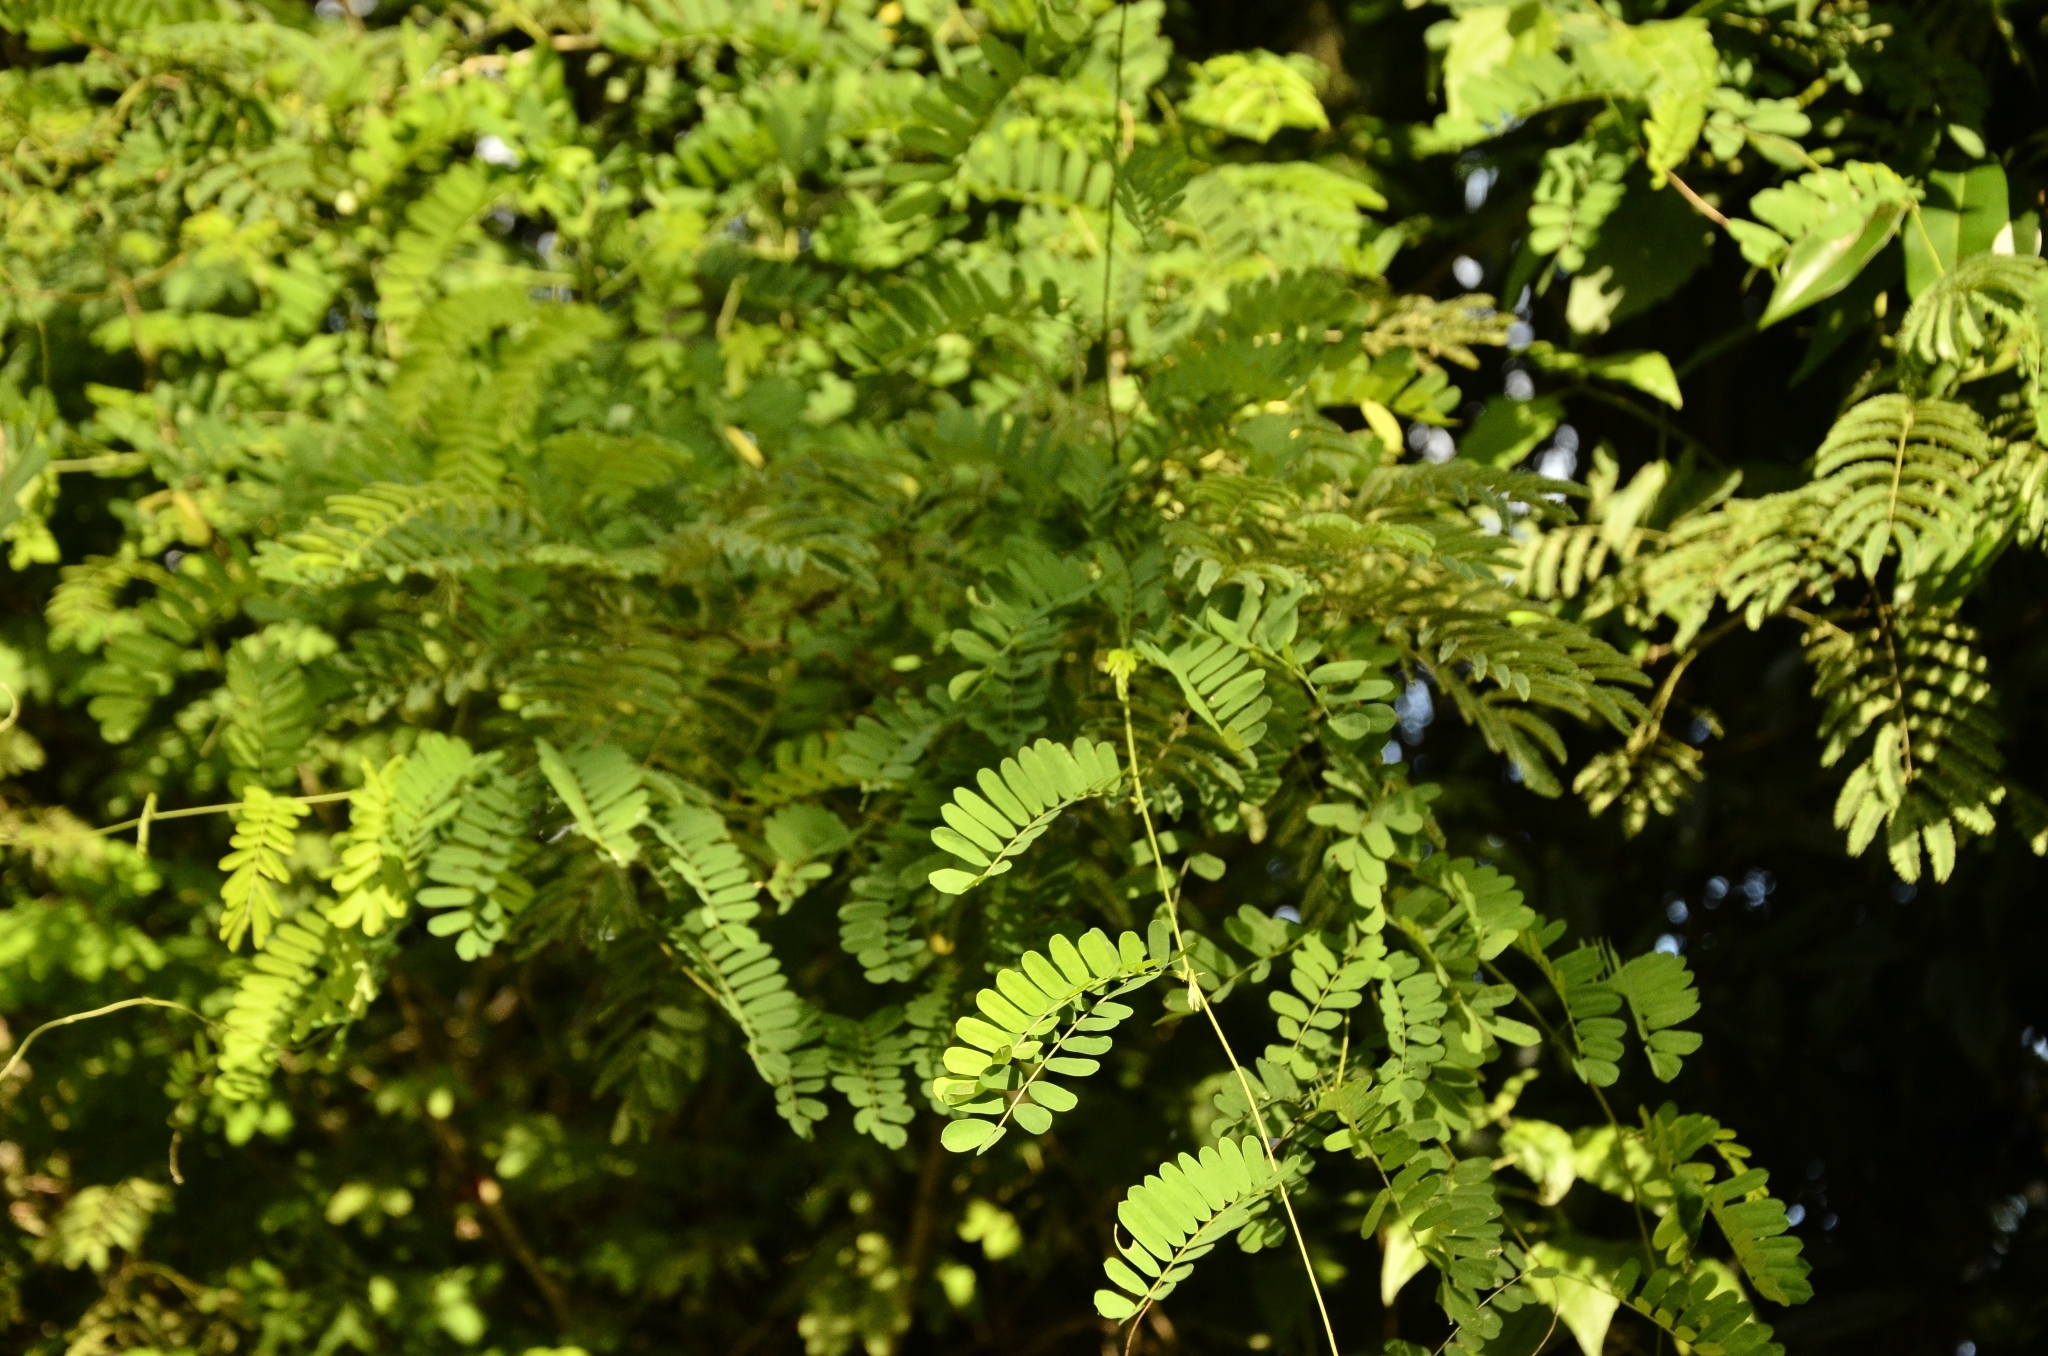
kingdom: Plantae
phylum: Tracheophyta
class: Magnoliopsida
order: Fabales
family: Fabaceae
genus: Abrus
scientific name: Abrus precatorius
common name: Rosarypea
